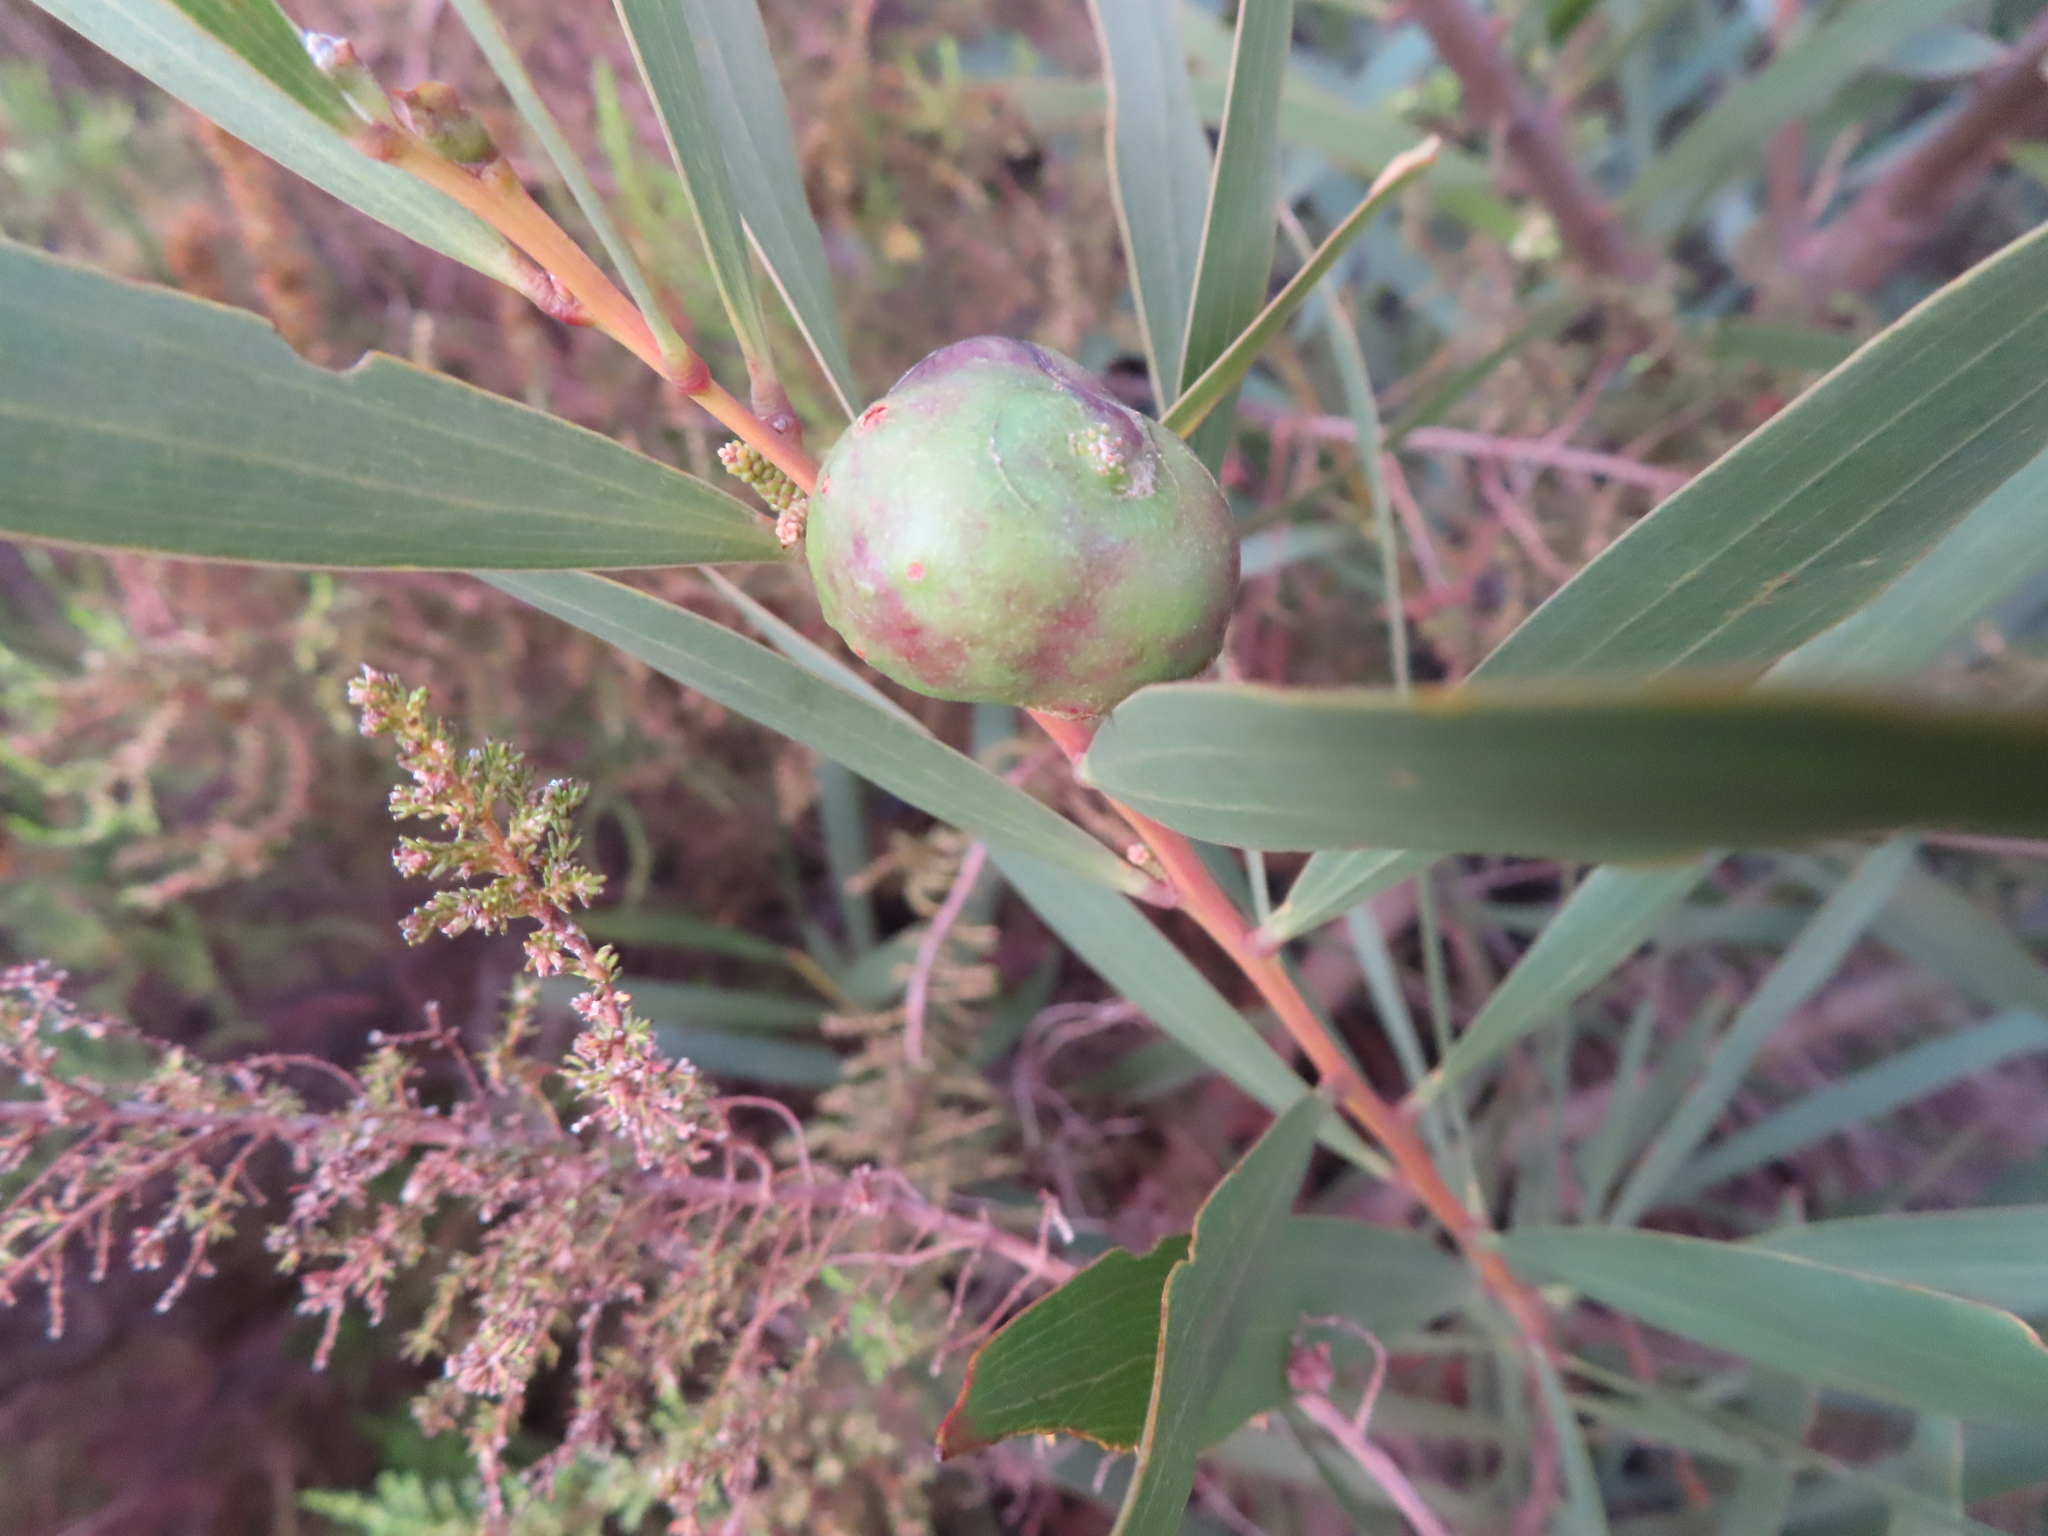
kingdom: Animalia
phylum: Arthropoda
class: Insecta
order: Hymenoptera
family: Pteromalidae
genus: Trichilogaster
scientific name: Trichilogaster acaciaelongifoliae
